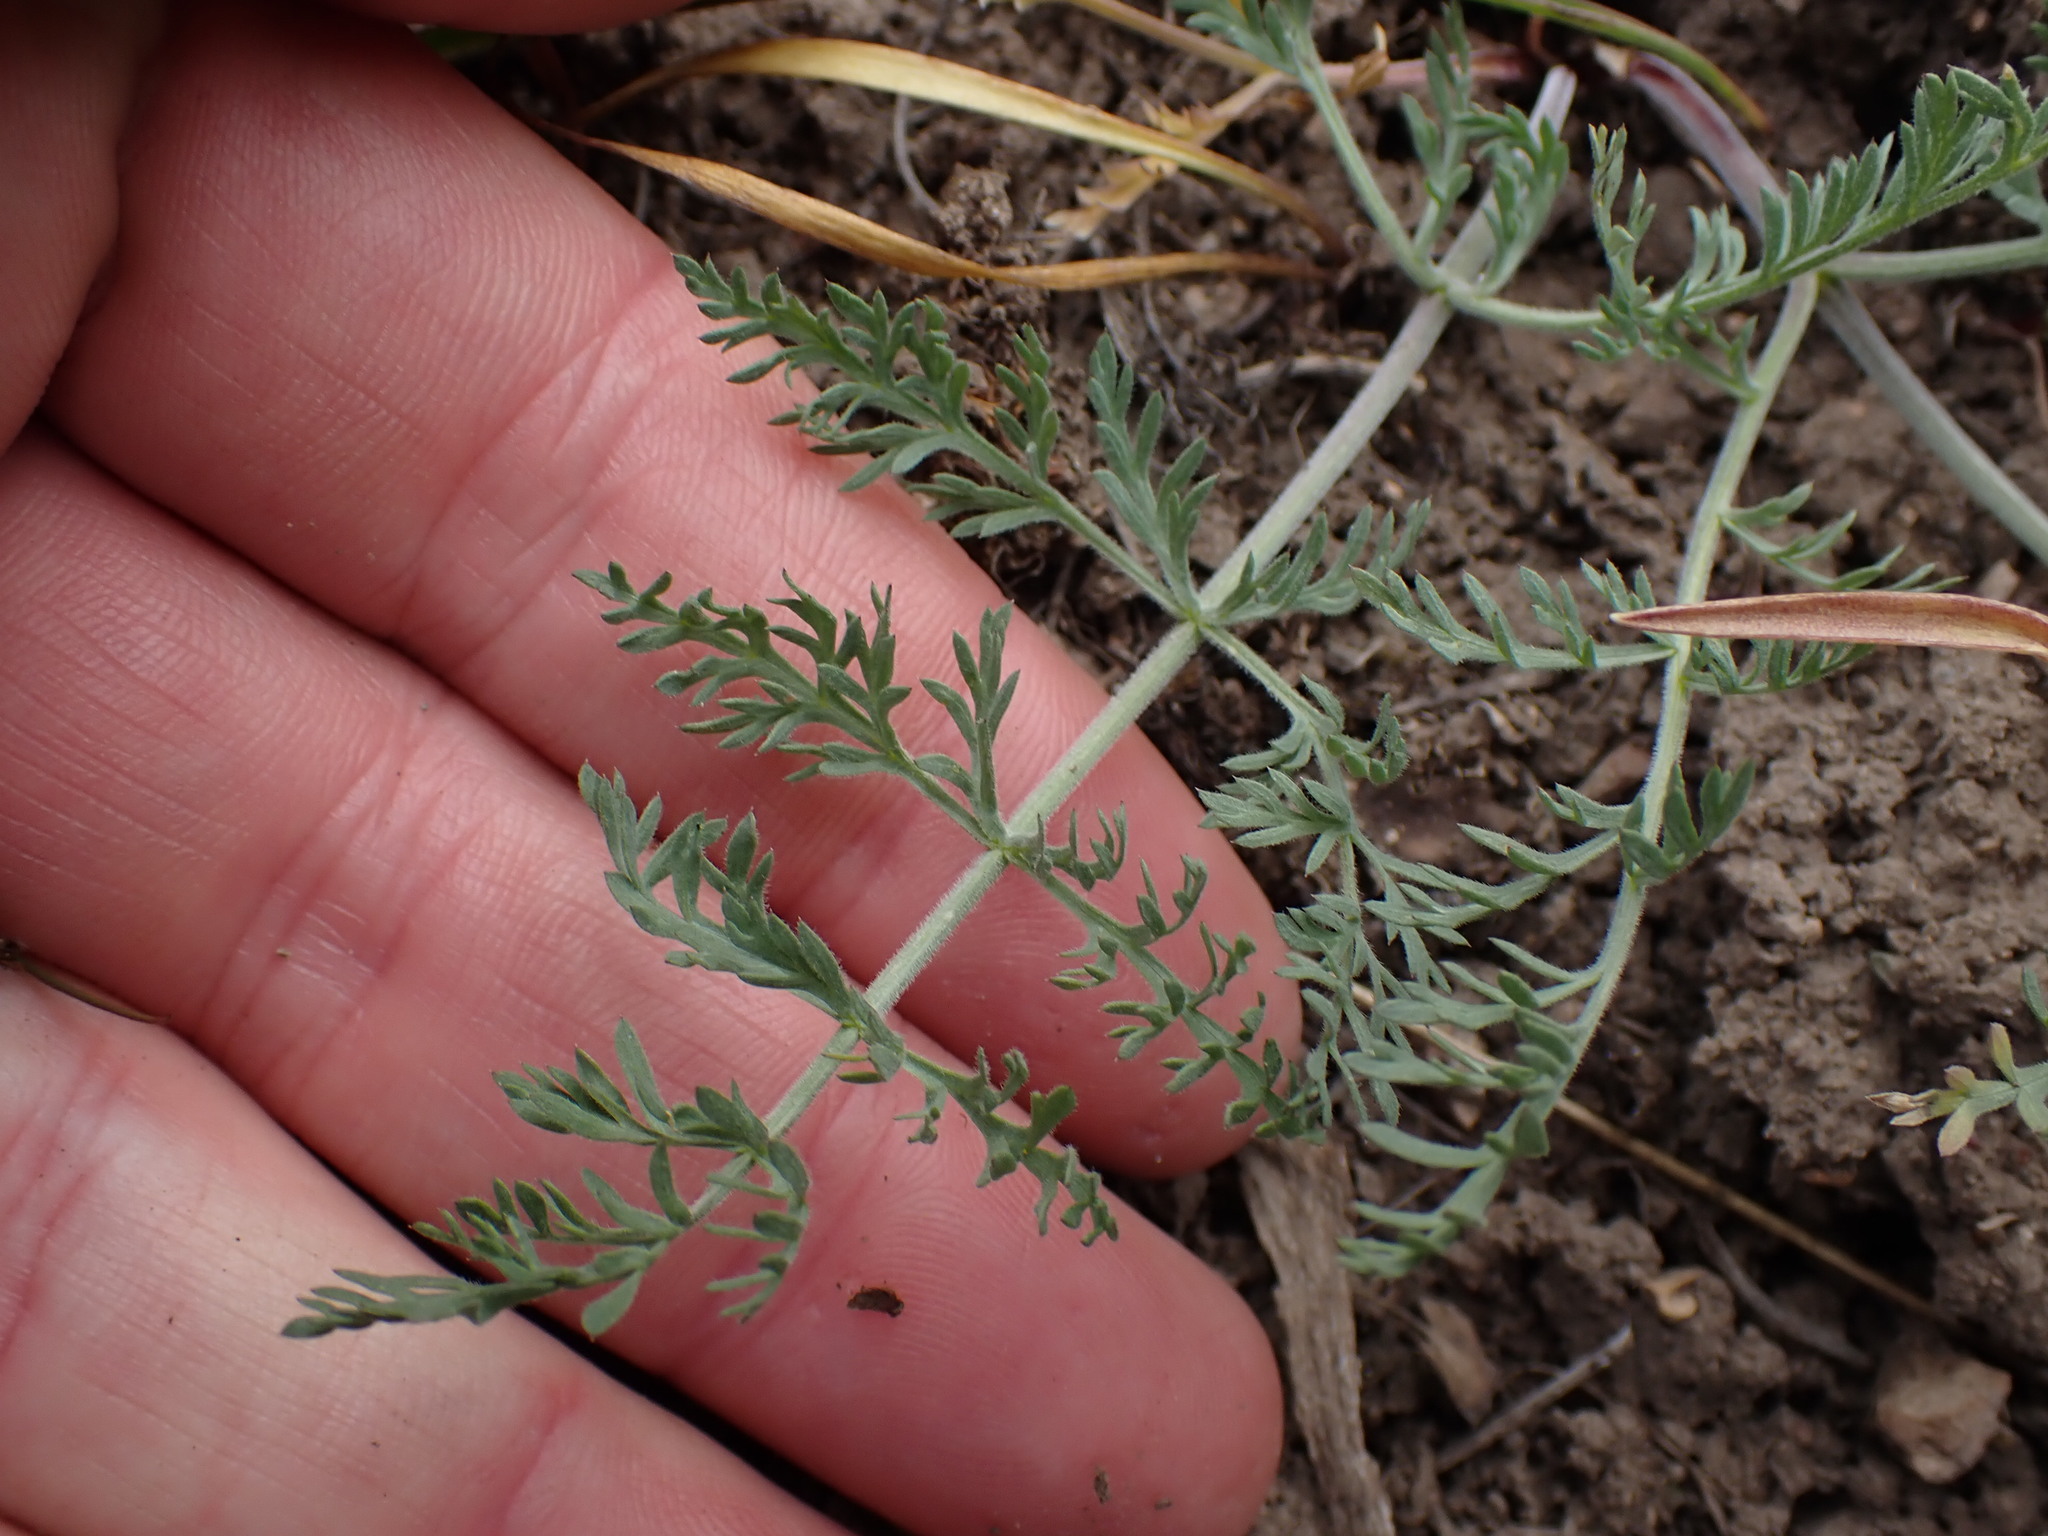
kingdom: Plantae
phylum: Tracheophyta
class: Magnoliopsida
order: Apiales
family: Apiaceae
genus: Lomatium
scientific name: Lomatium macrocarpum
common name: Big-seed biscuitroot
